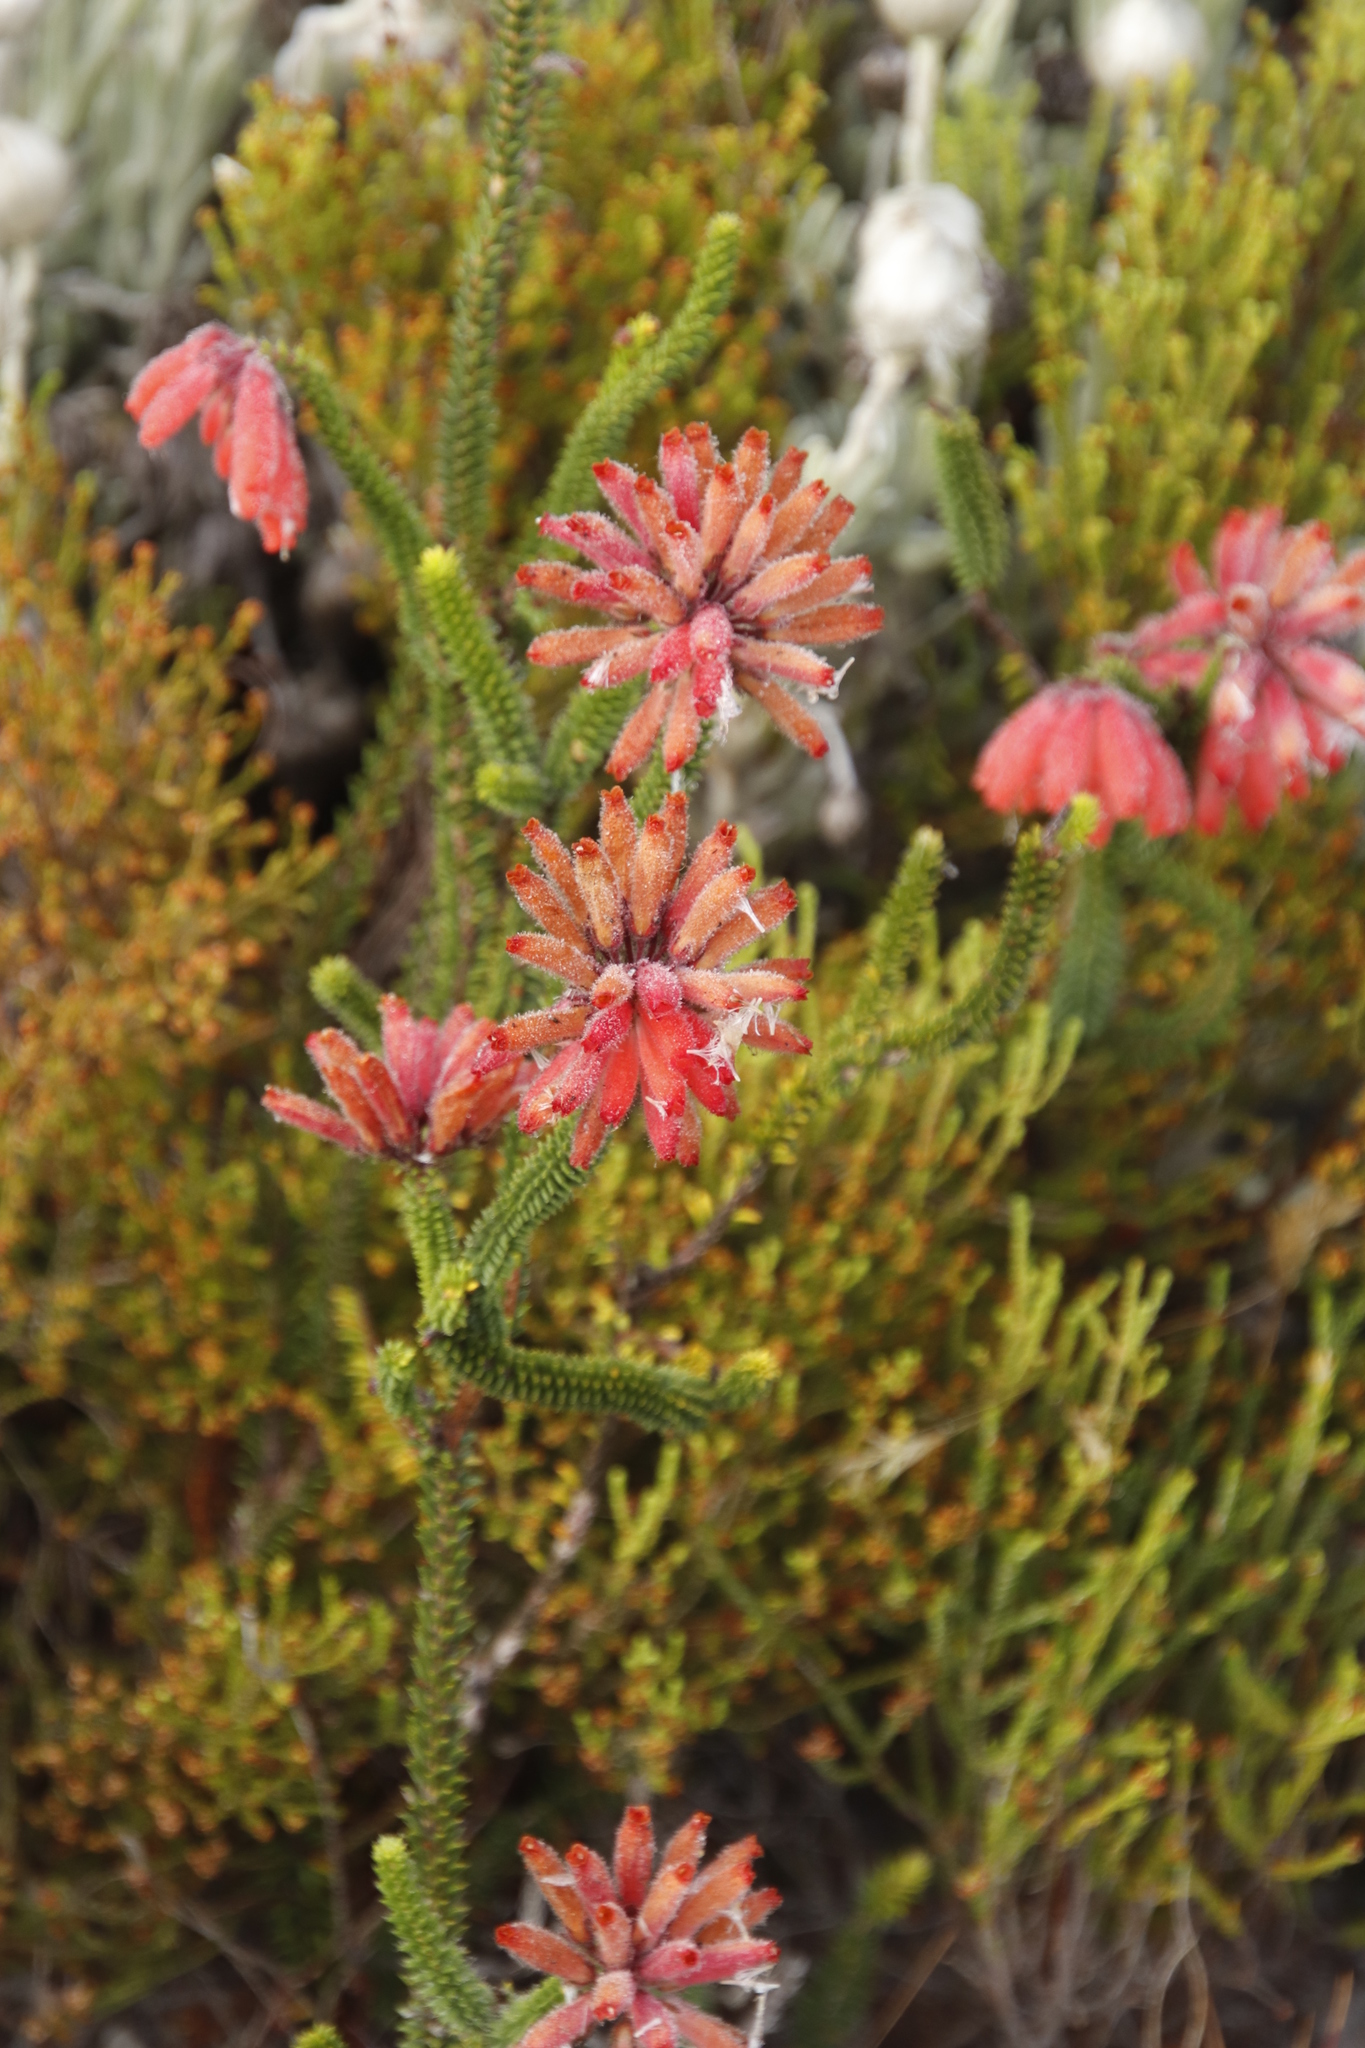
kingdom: Plantae
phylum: Tracheophyta
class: Magnoliopsida
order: Ericales
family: Ericaceae
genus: Erica
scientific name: Erica cerinthoides
